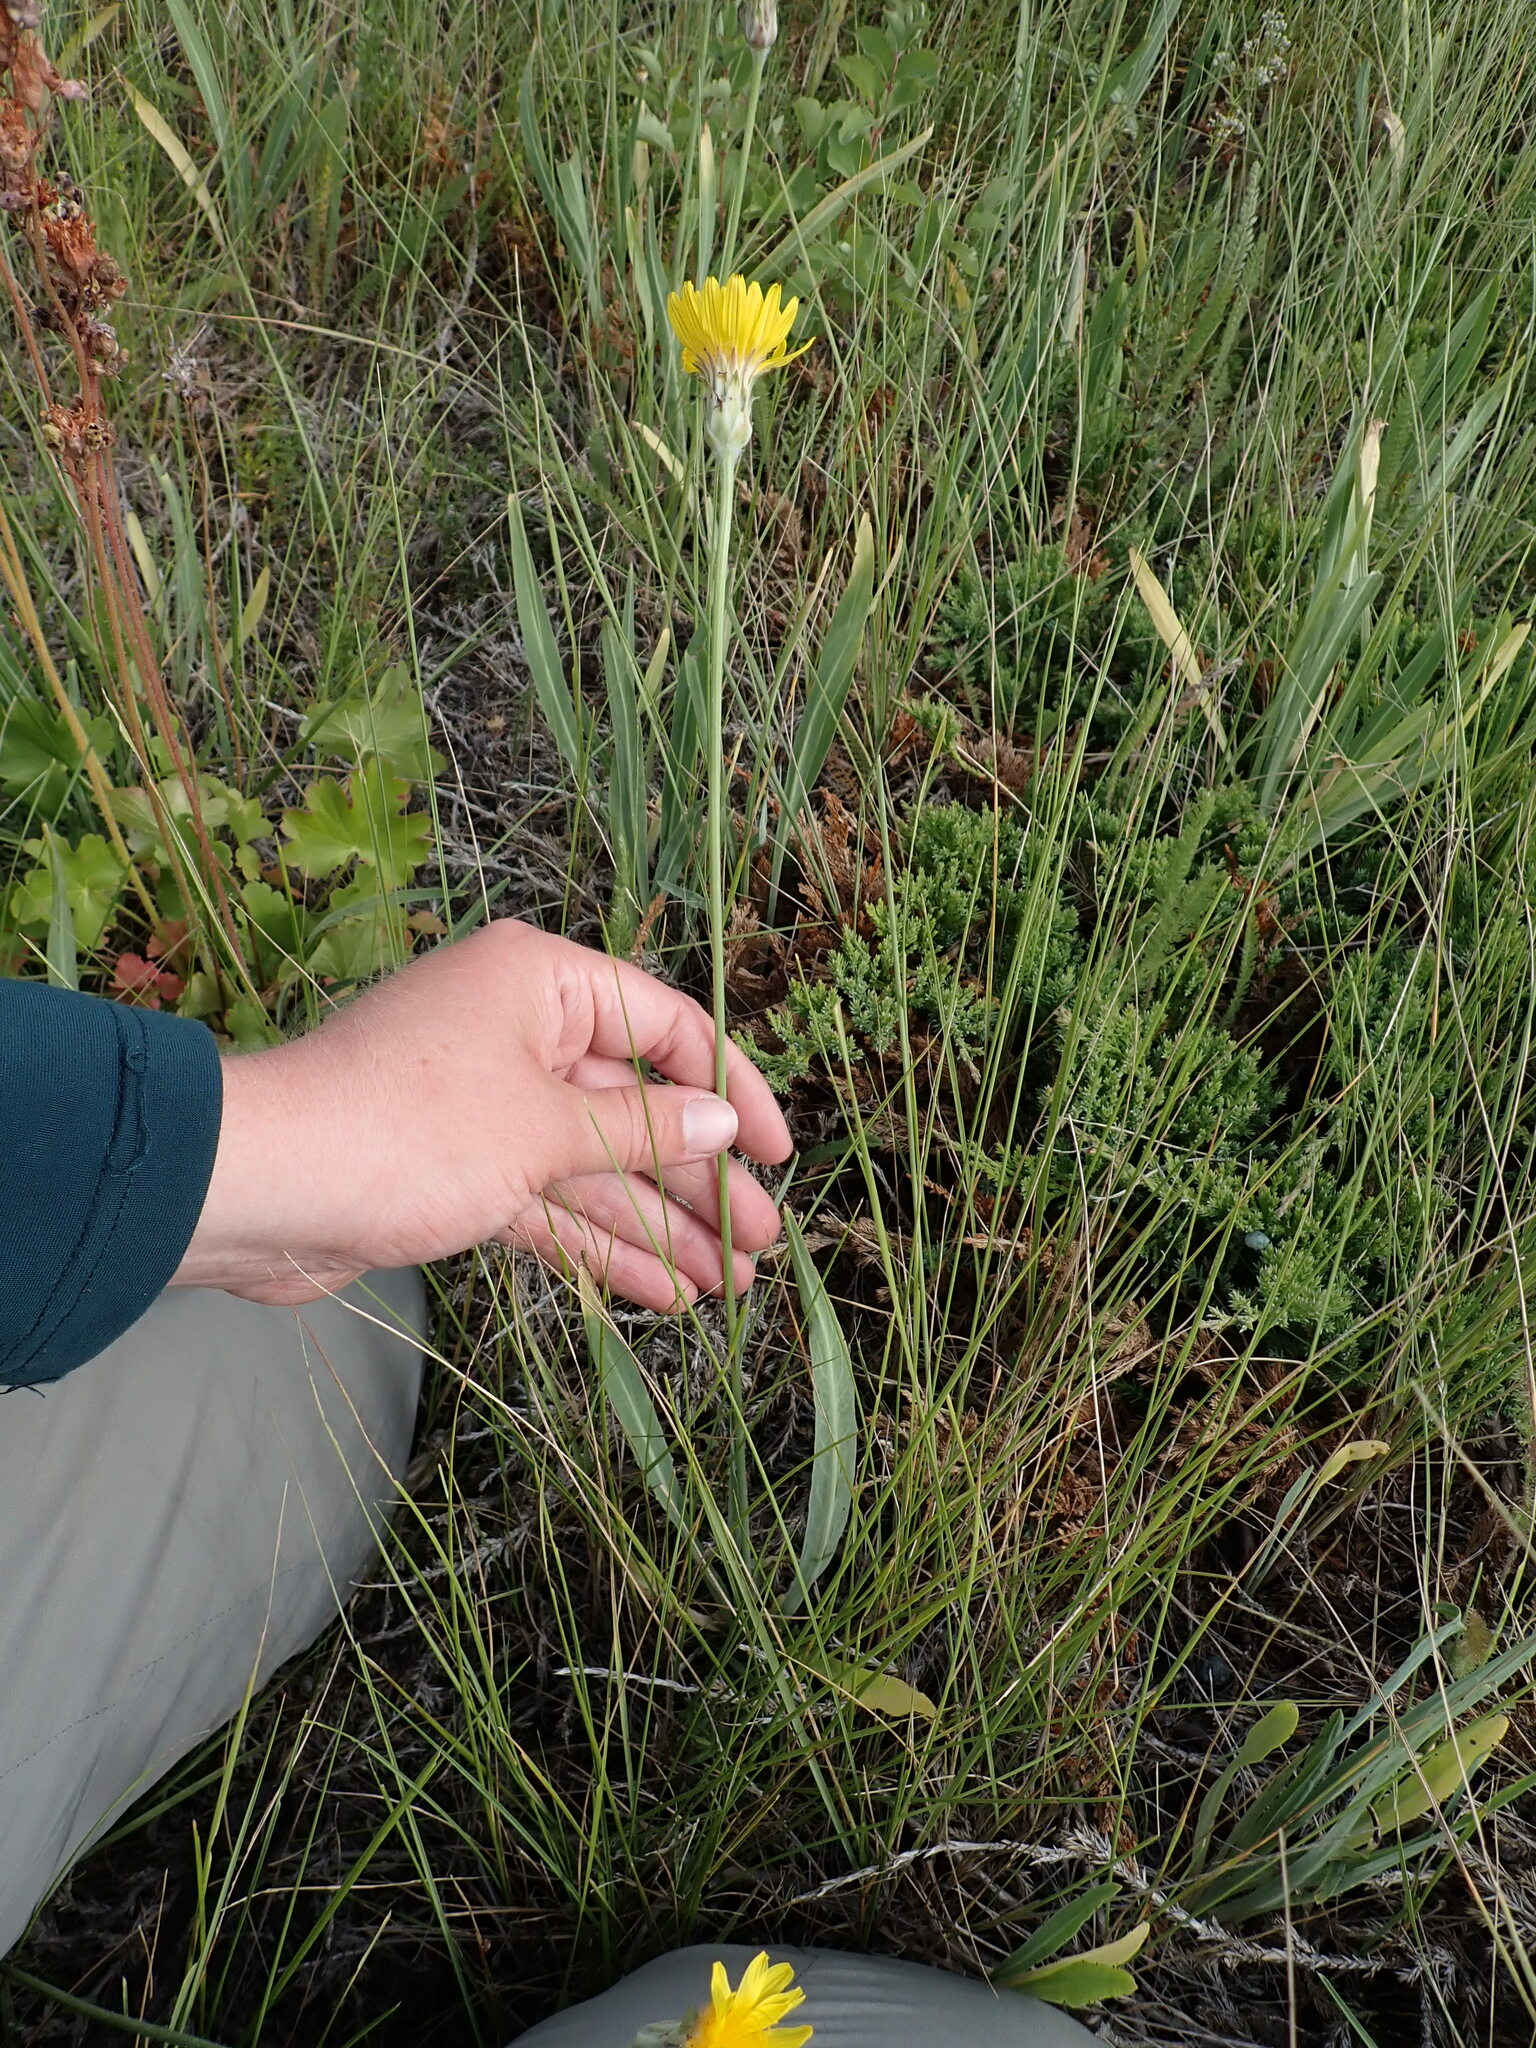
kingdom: Plantae
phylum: Tracheophyta
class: Magnoliopsida
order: Asterales
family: Asteraceae
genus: Agoseris
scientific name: Agoseris glauca
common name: Prairie agoseris
